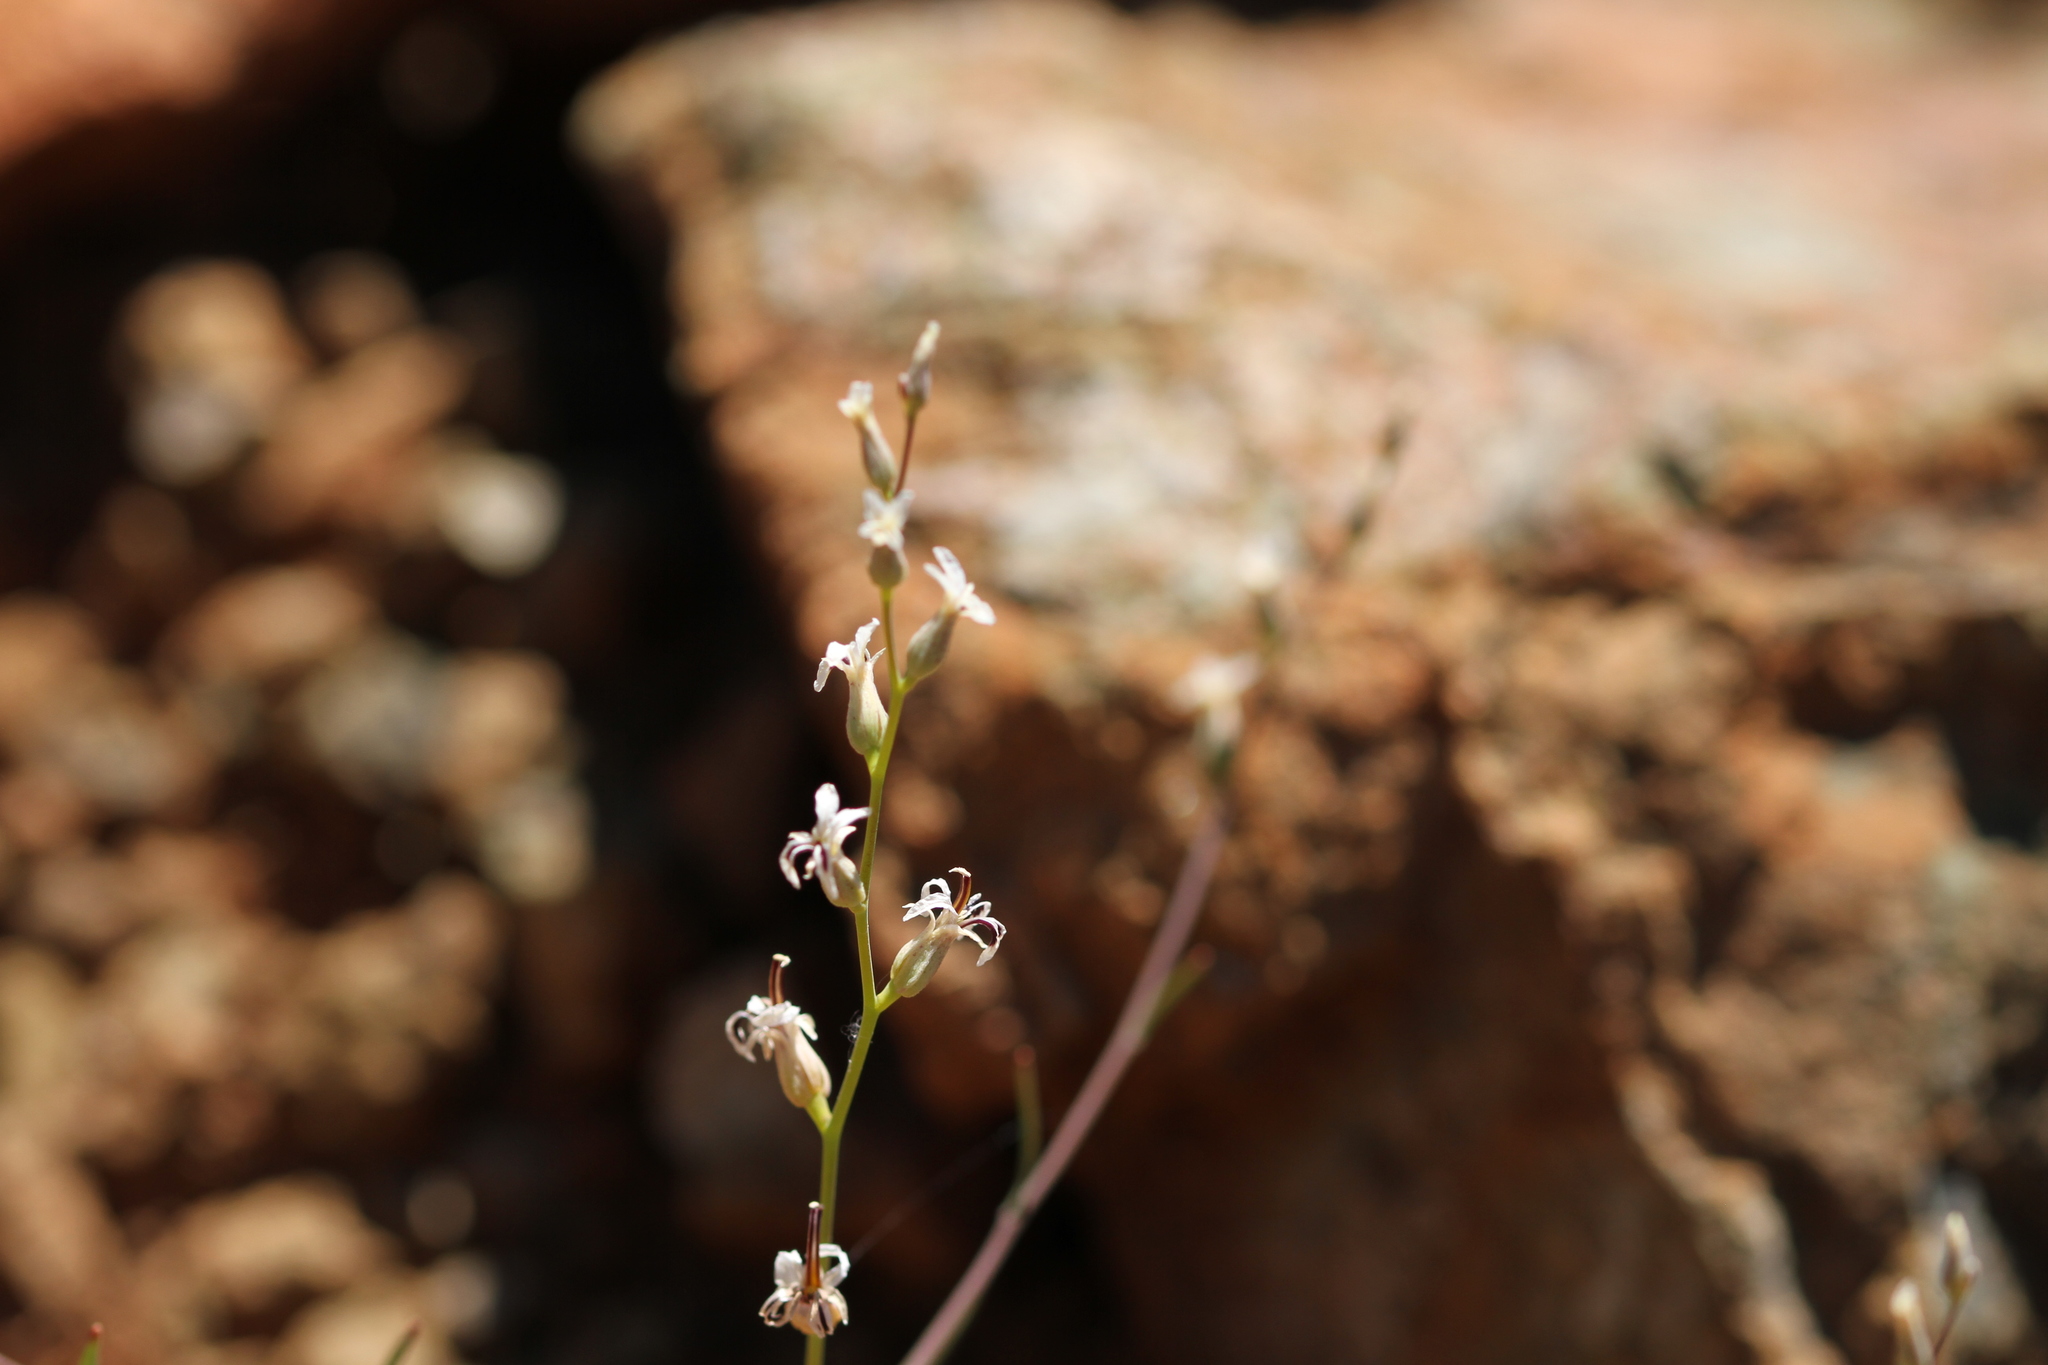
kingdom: Plantae
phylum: Tracheophyta
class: Magnoliopsida
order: Brassicales
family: Brassicaceae
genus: Streptanthus
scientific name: Streptanthus barbiger
